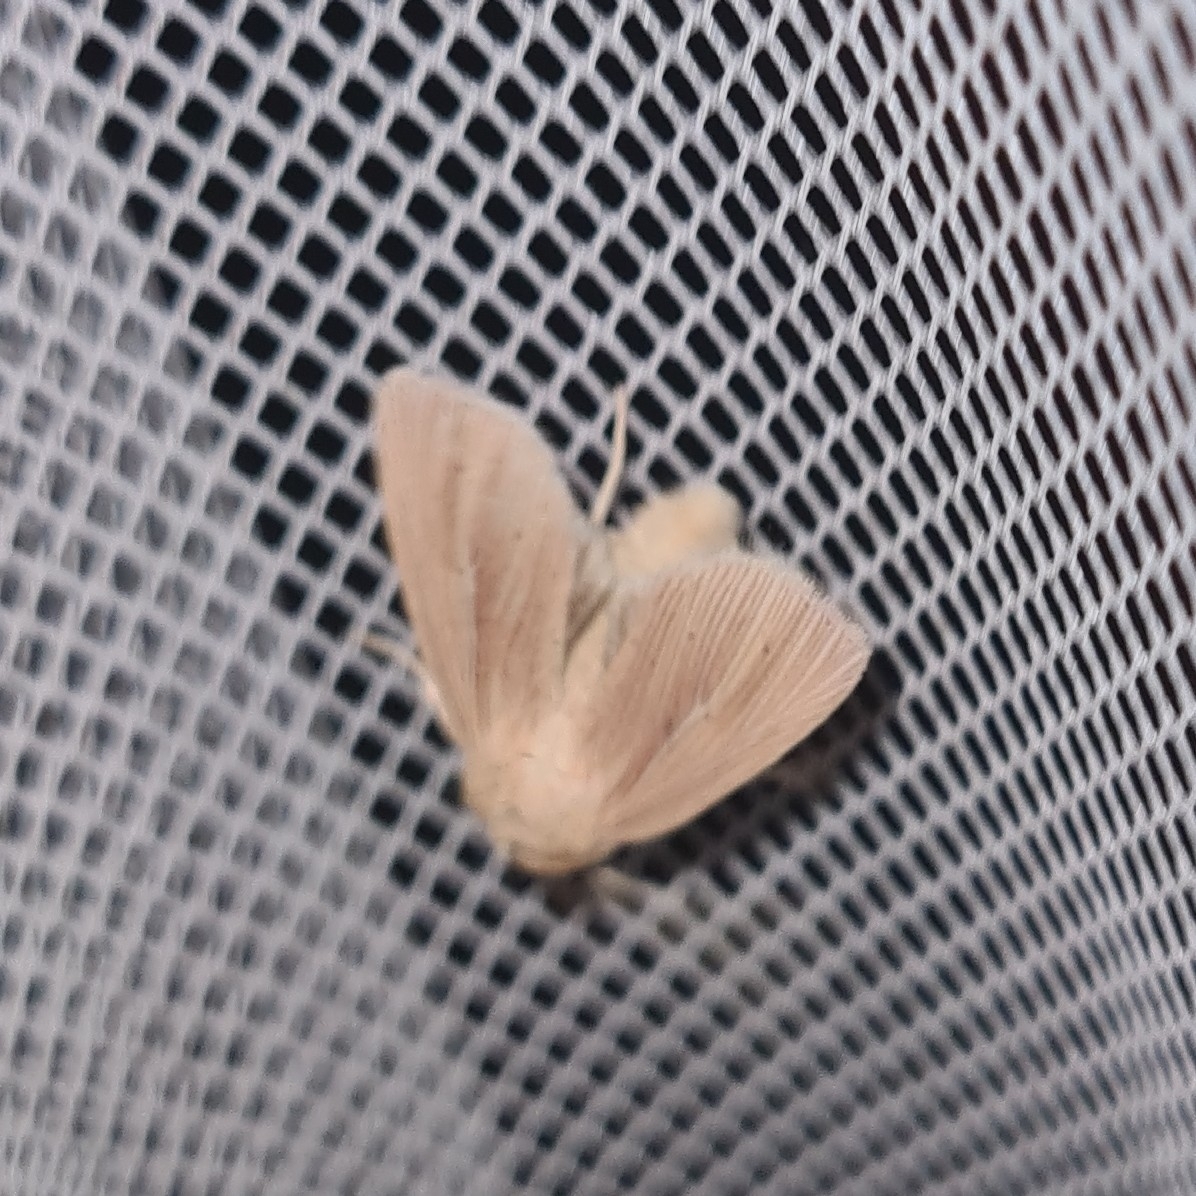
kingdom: Animalia
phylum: Arthropoda
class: Insecta
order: Lepidoptera
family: Noctuidae
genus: Mythimna
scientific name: Mythimna impura
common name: Smoky wainscot
